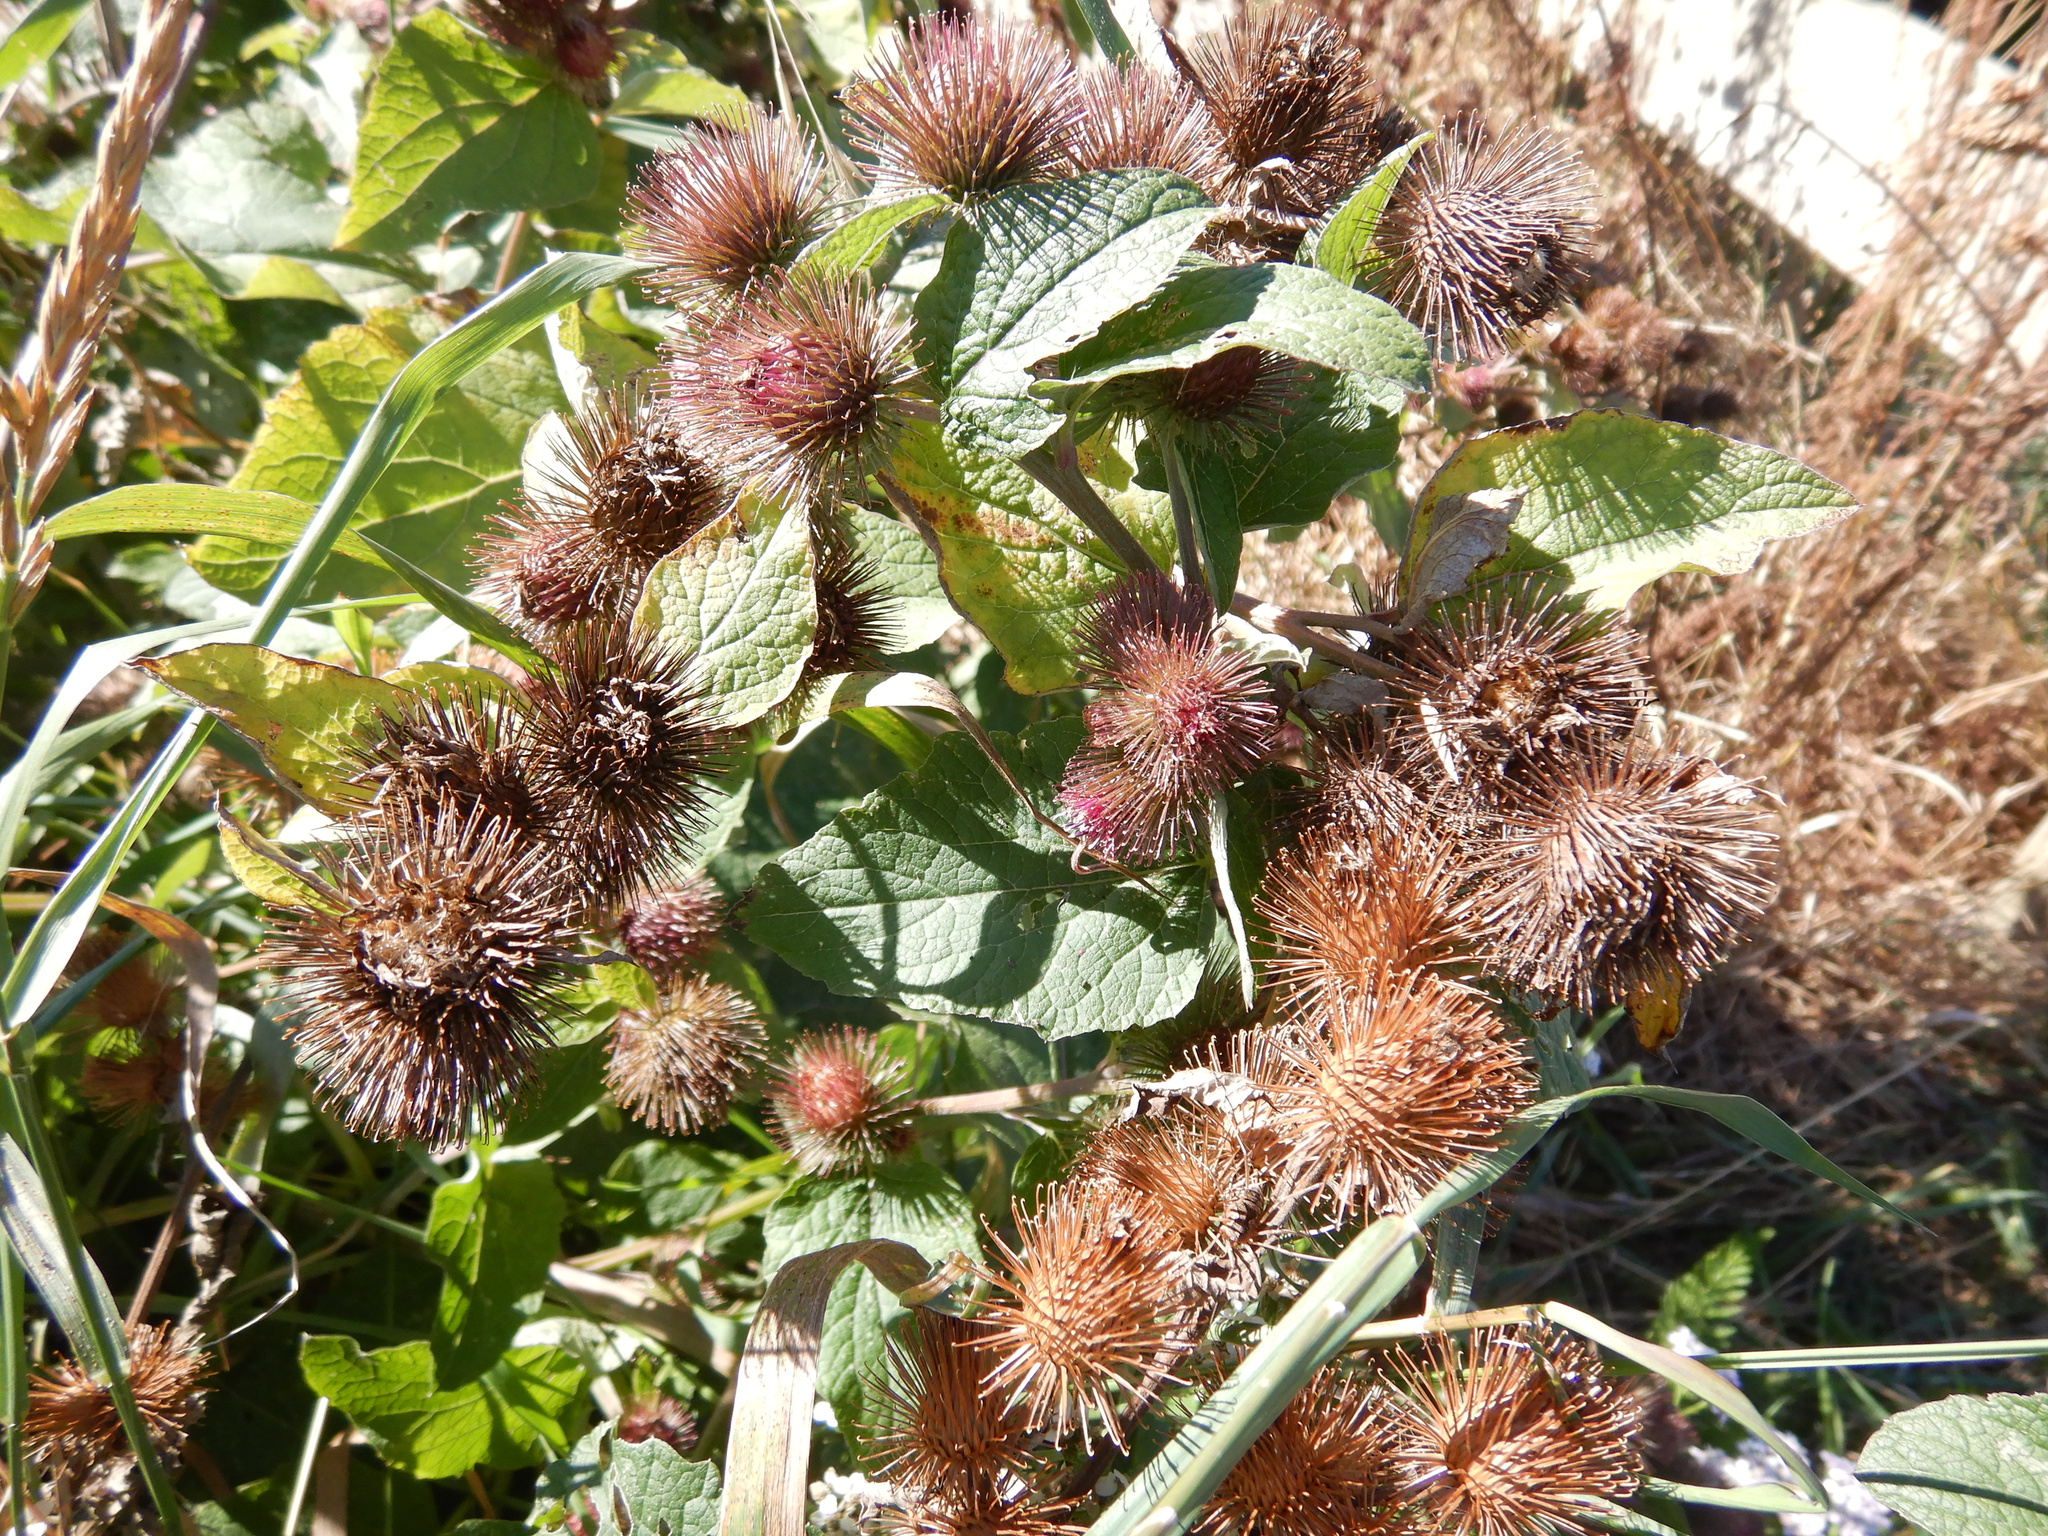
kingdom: Plantae
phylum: Tracheophyta
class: Magnoliopsida
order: Asterales
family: Asteraceae
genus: Arctium
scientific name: Arctium minus
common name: Lesser burdock
